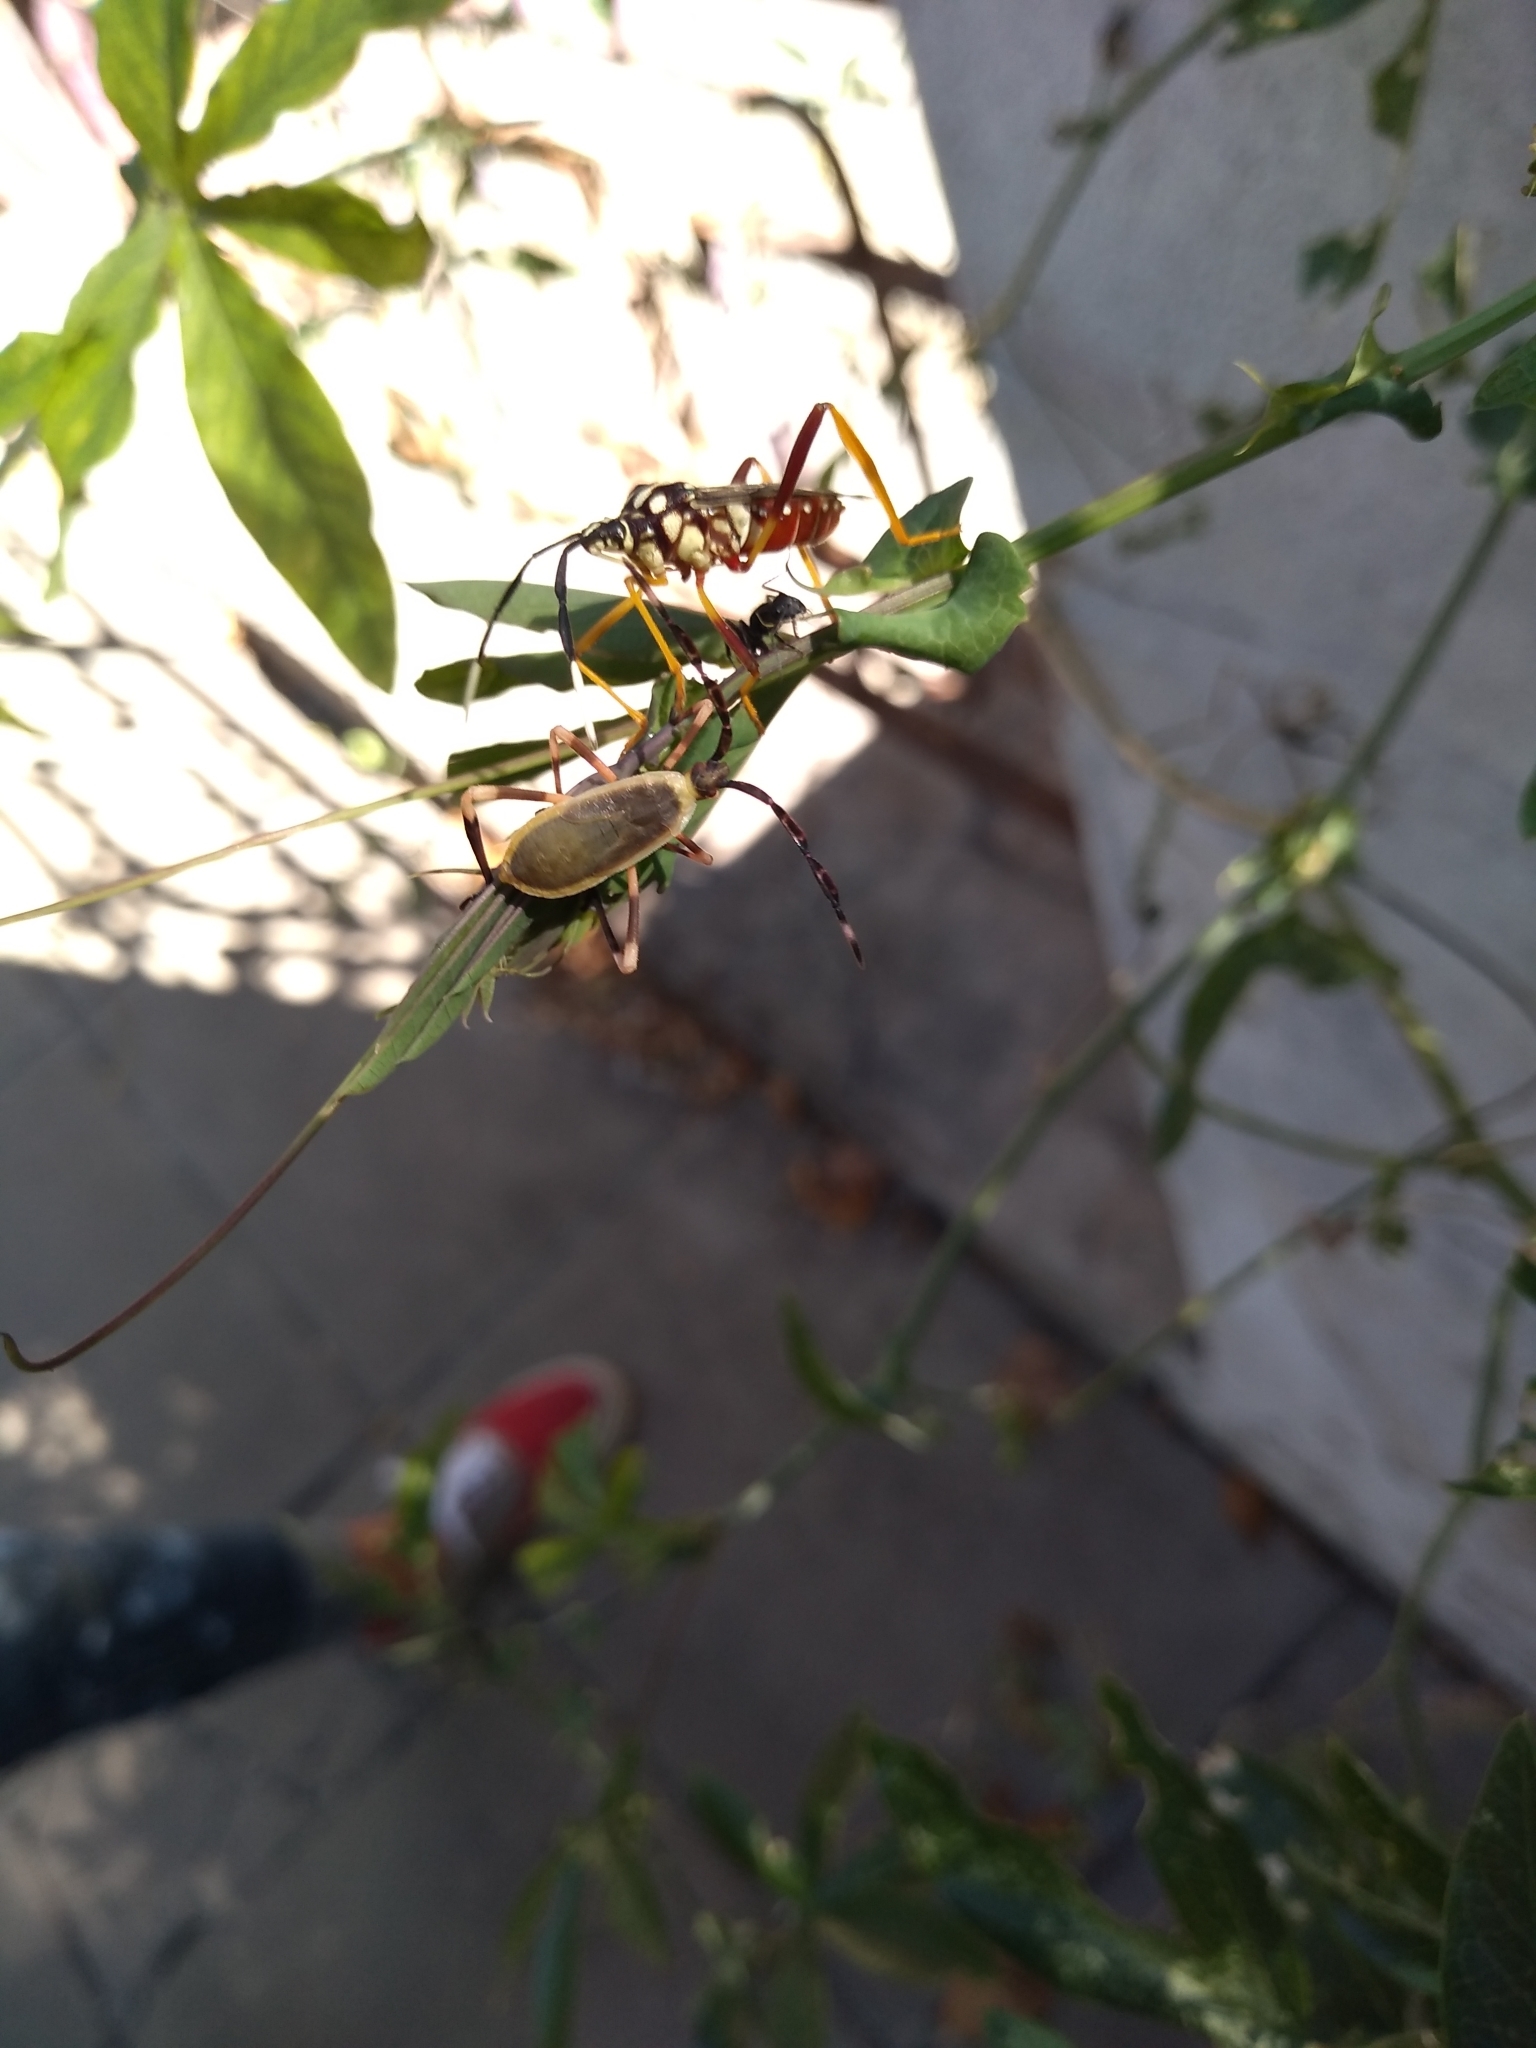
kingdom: Animalia
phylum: Arthropoda
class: Insecta
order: Hemiptera
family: Coreidae
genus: Holhymenia
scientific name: Holhymenia histrio
